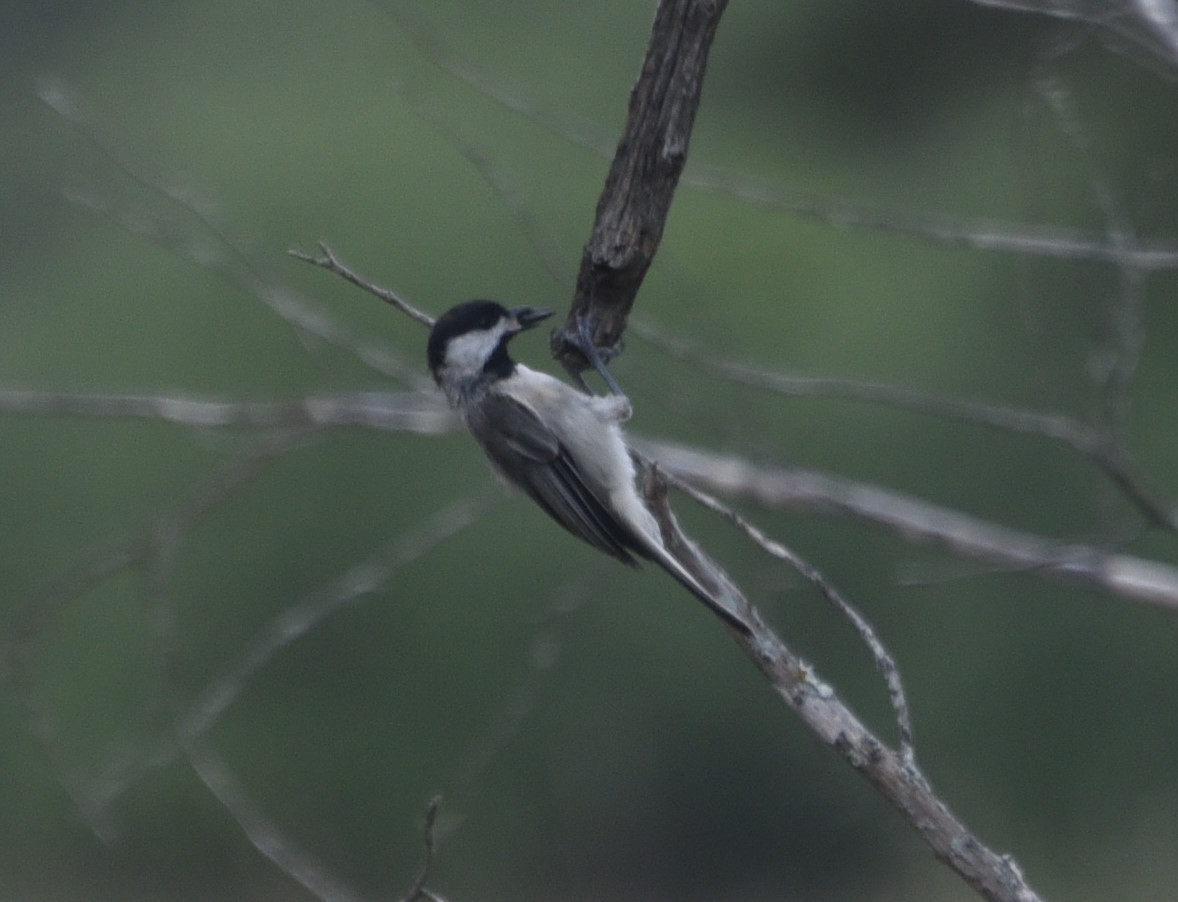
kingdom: Animalia
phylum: Chordata
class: Aves
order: Passeriformes
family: Paridae
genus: Poecile
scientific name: Poecile carolinensis
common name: Carolina chickadee
